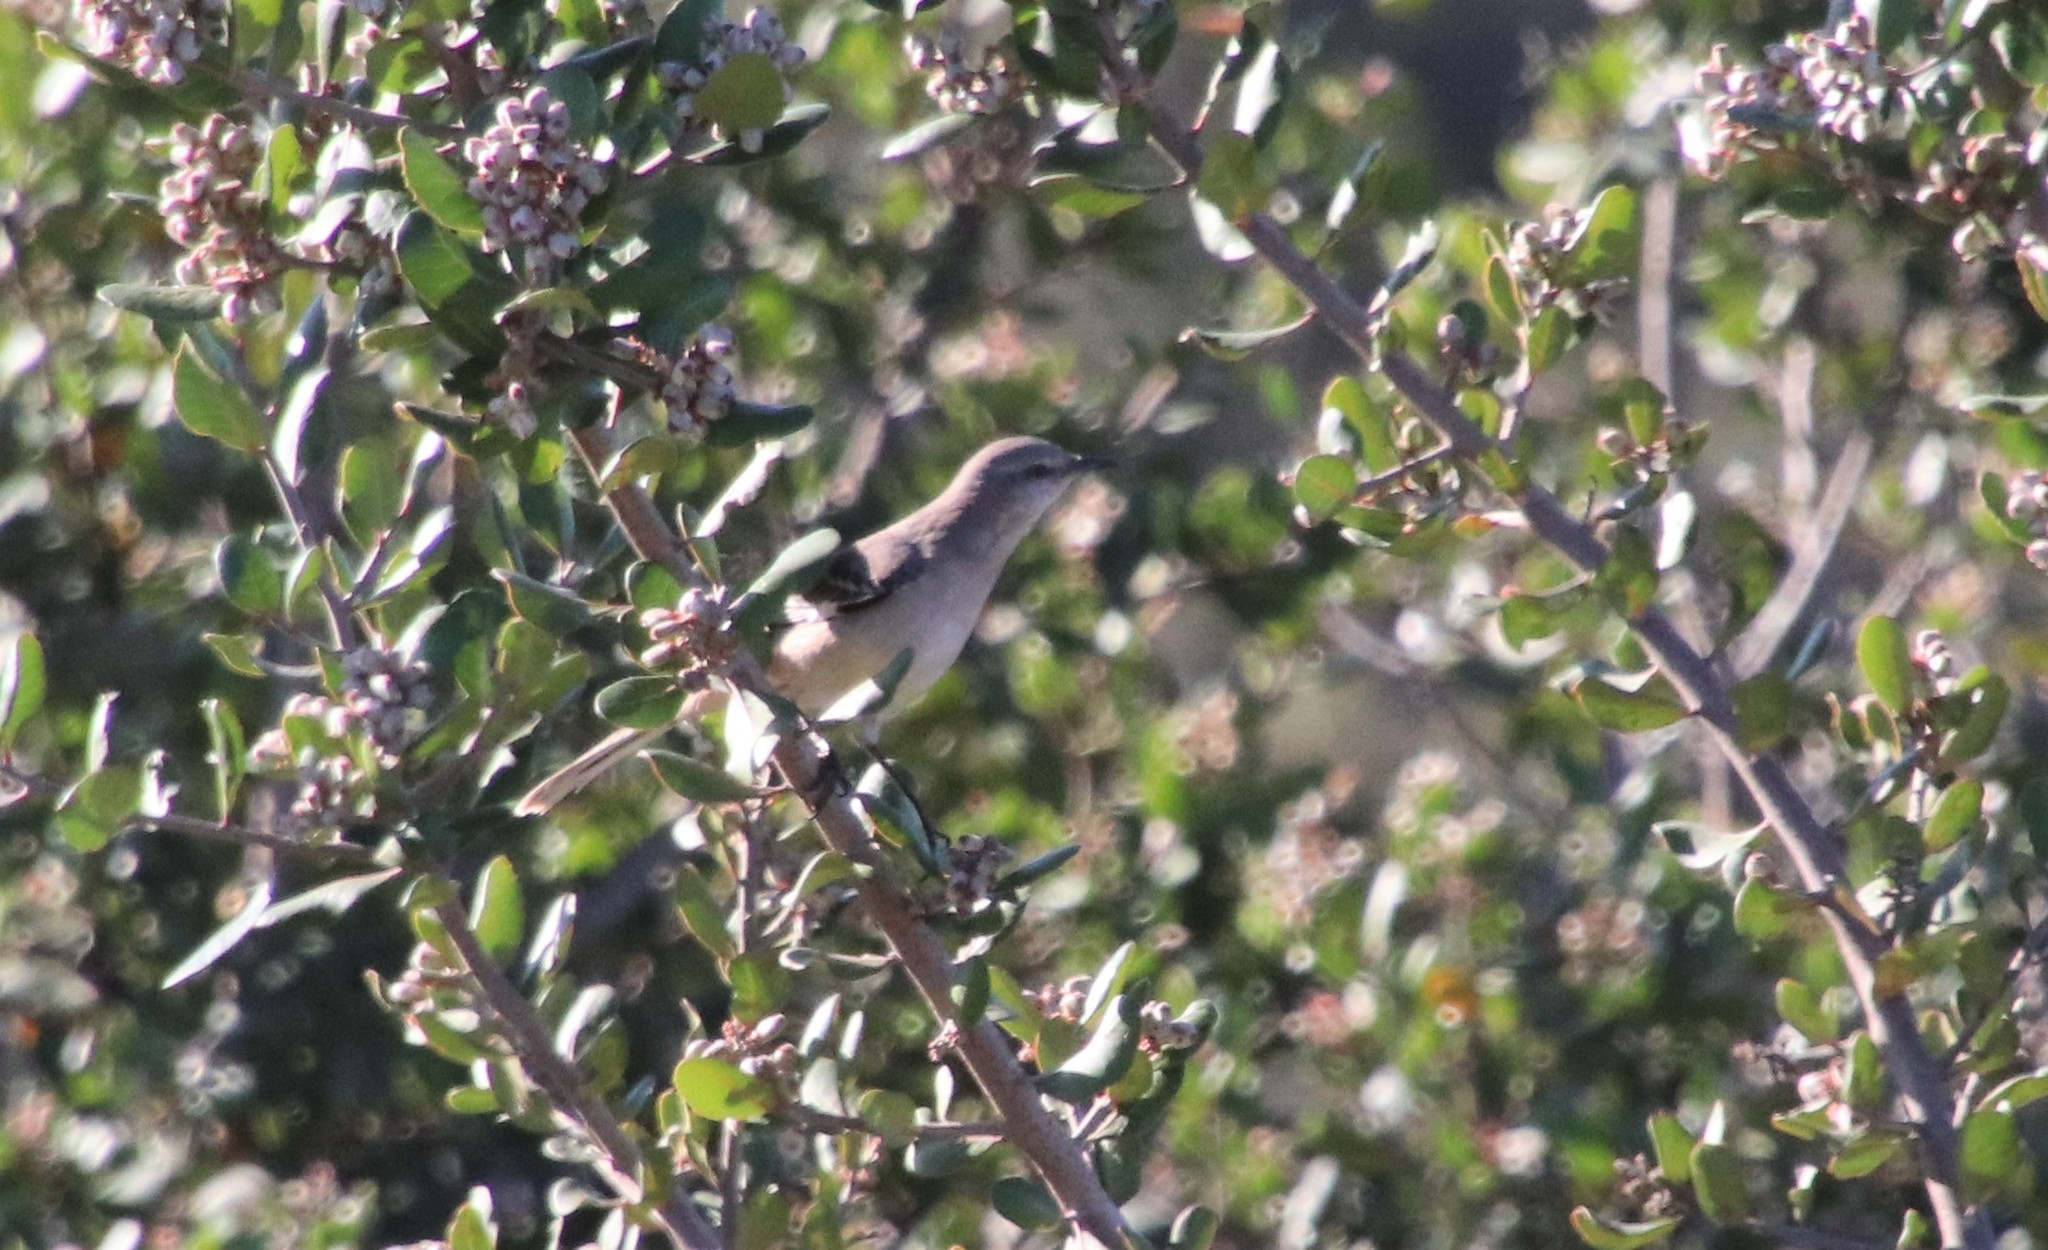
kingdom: Animalia
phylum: Chordata
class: Aves
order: Passeriformes
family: Mimidae
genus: Mimus
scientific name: Mimus polyglottos
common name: Northern mockingbird
